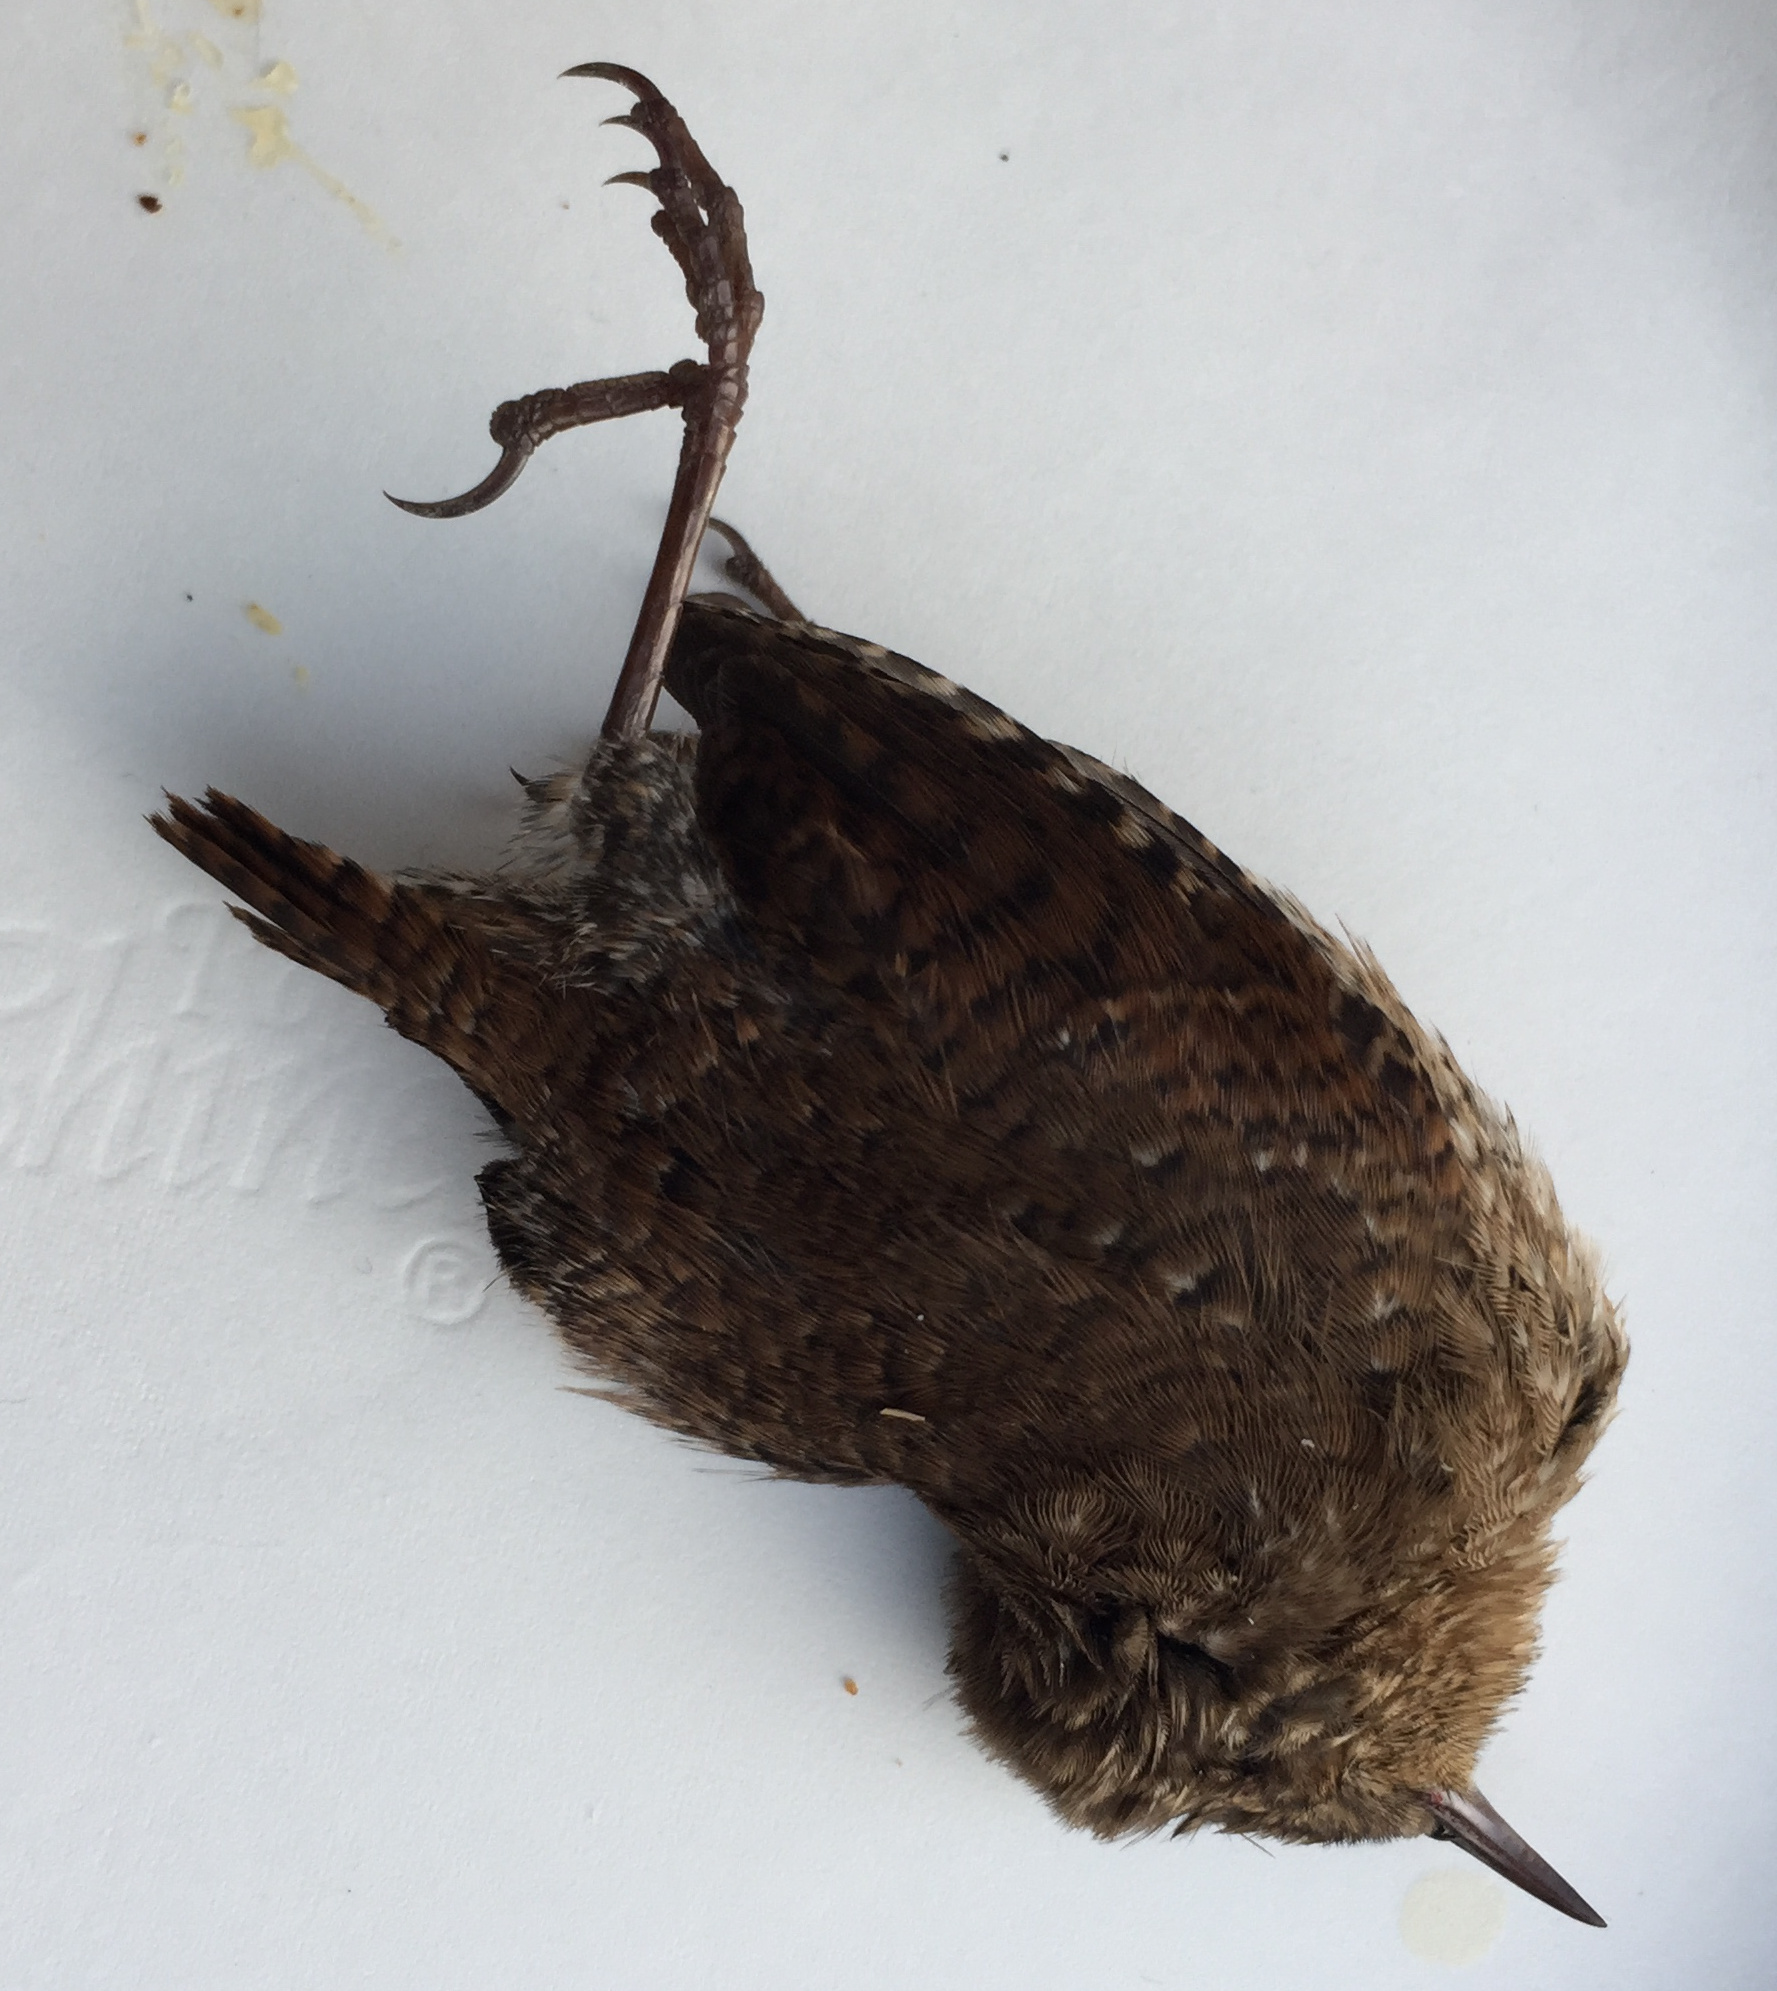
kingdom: Animalia
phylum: Chordata
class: Aves
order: Passeriformes
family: Troglodytidae
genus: Troglodytes
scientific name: Troglodytes hiemalis
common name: Winter wren
